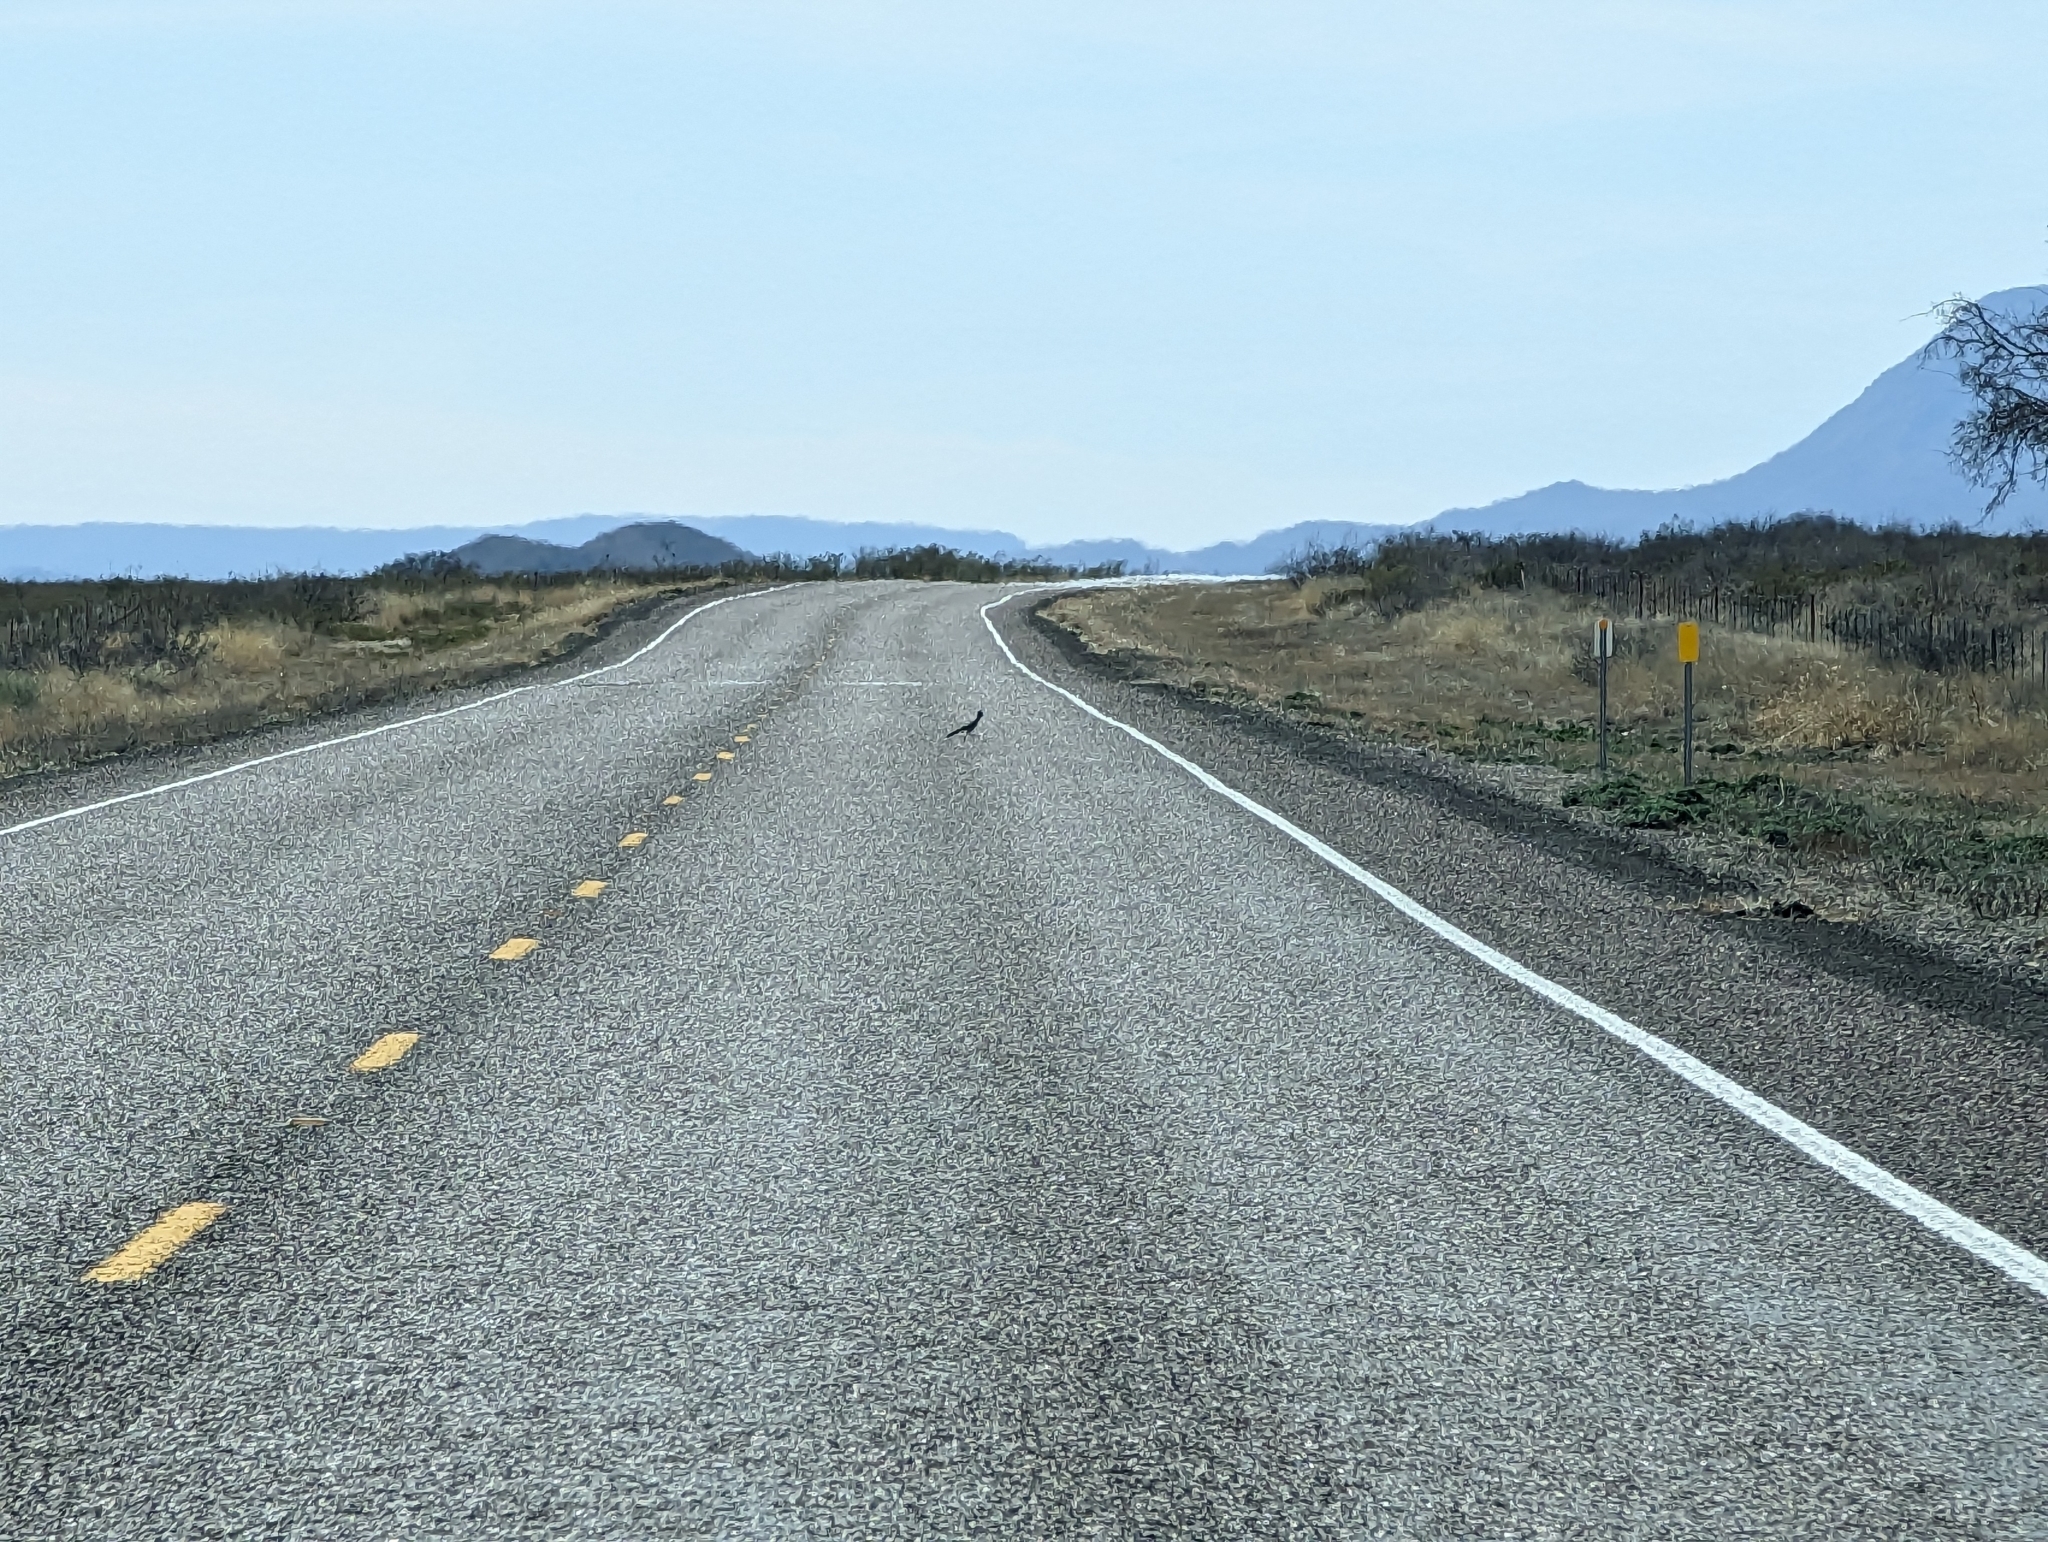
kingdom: Animalia
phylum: Chordata
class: Aves
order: Cuculiformes
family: Cuculidae
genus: Geococcyx
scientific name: Geococcyx californianus
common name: Greater roadrunner
